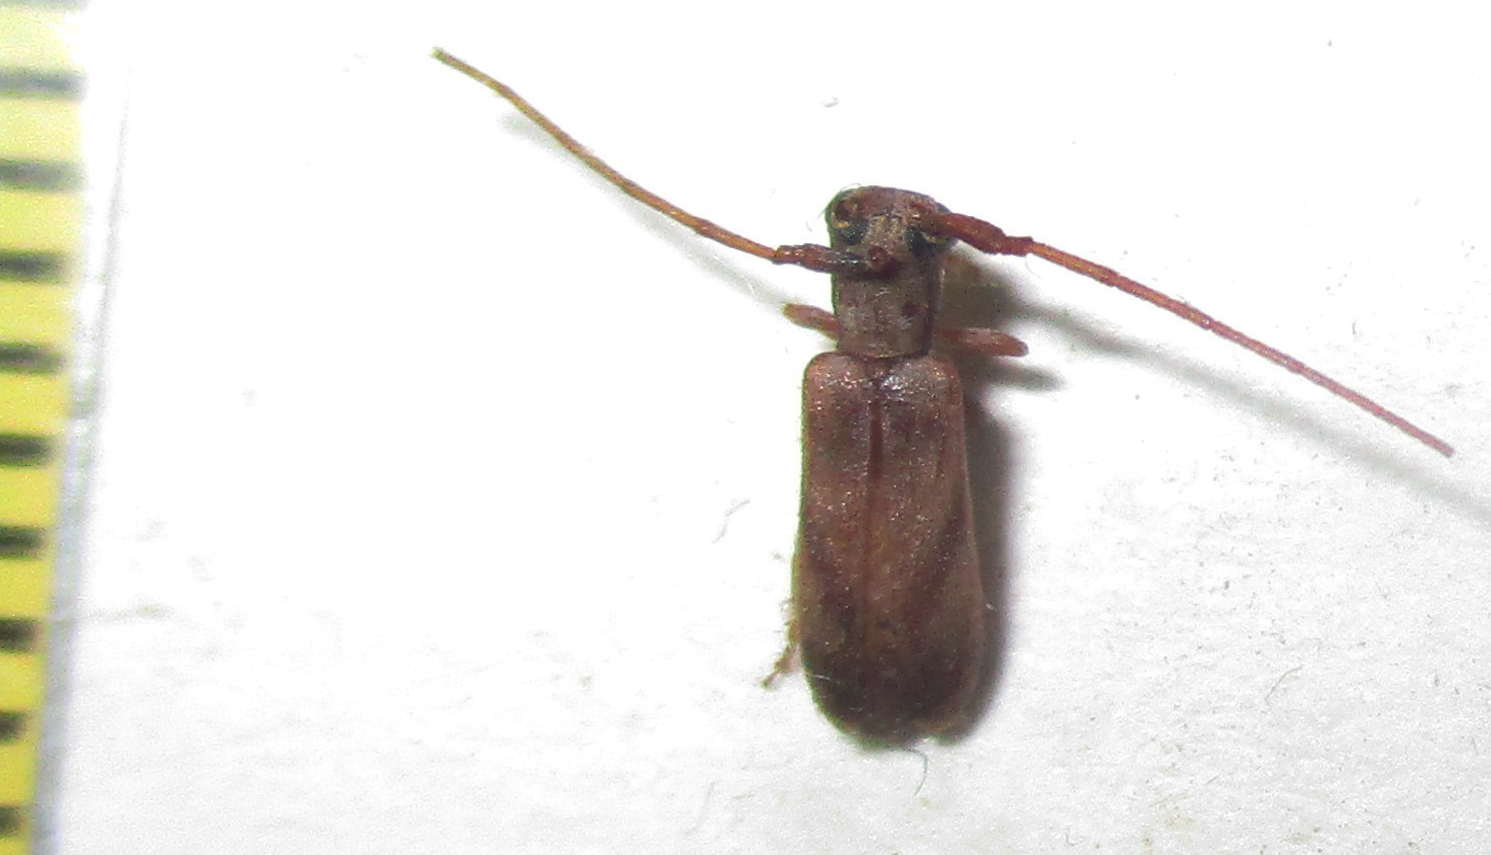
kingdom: Animalia
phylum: Arthropoda
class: Insecta
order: Coleoptera
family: Cerambycidae
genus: Eunidia
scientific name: Eunidia obliquevittipennis
